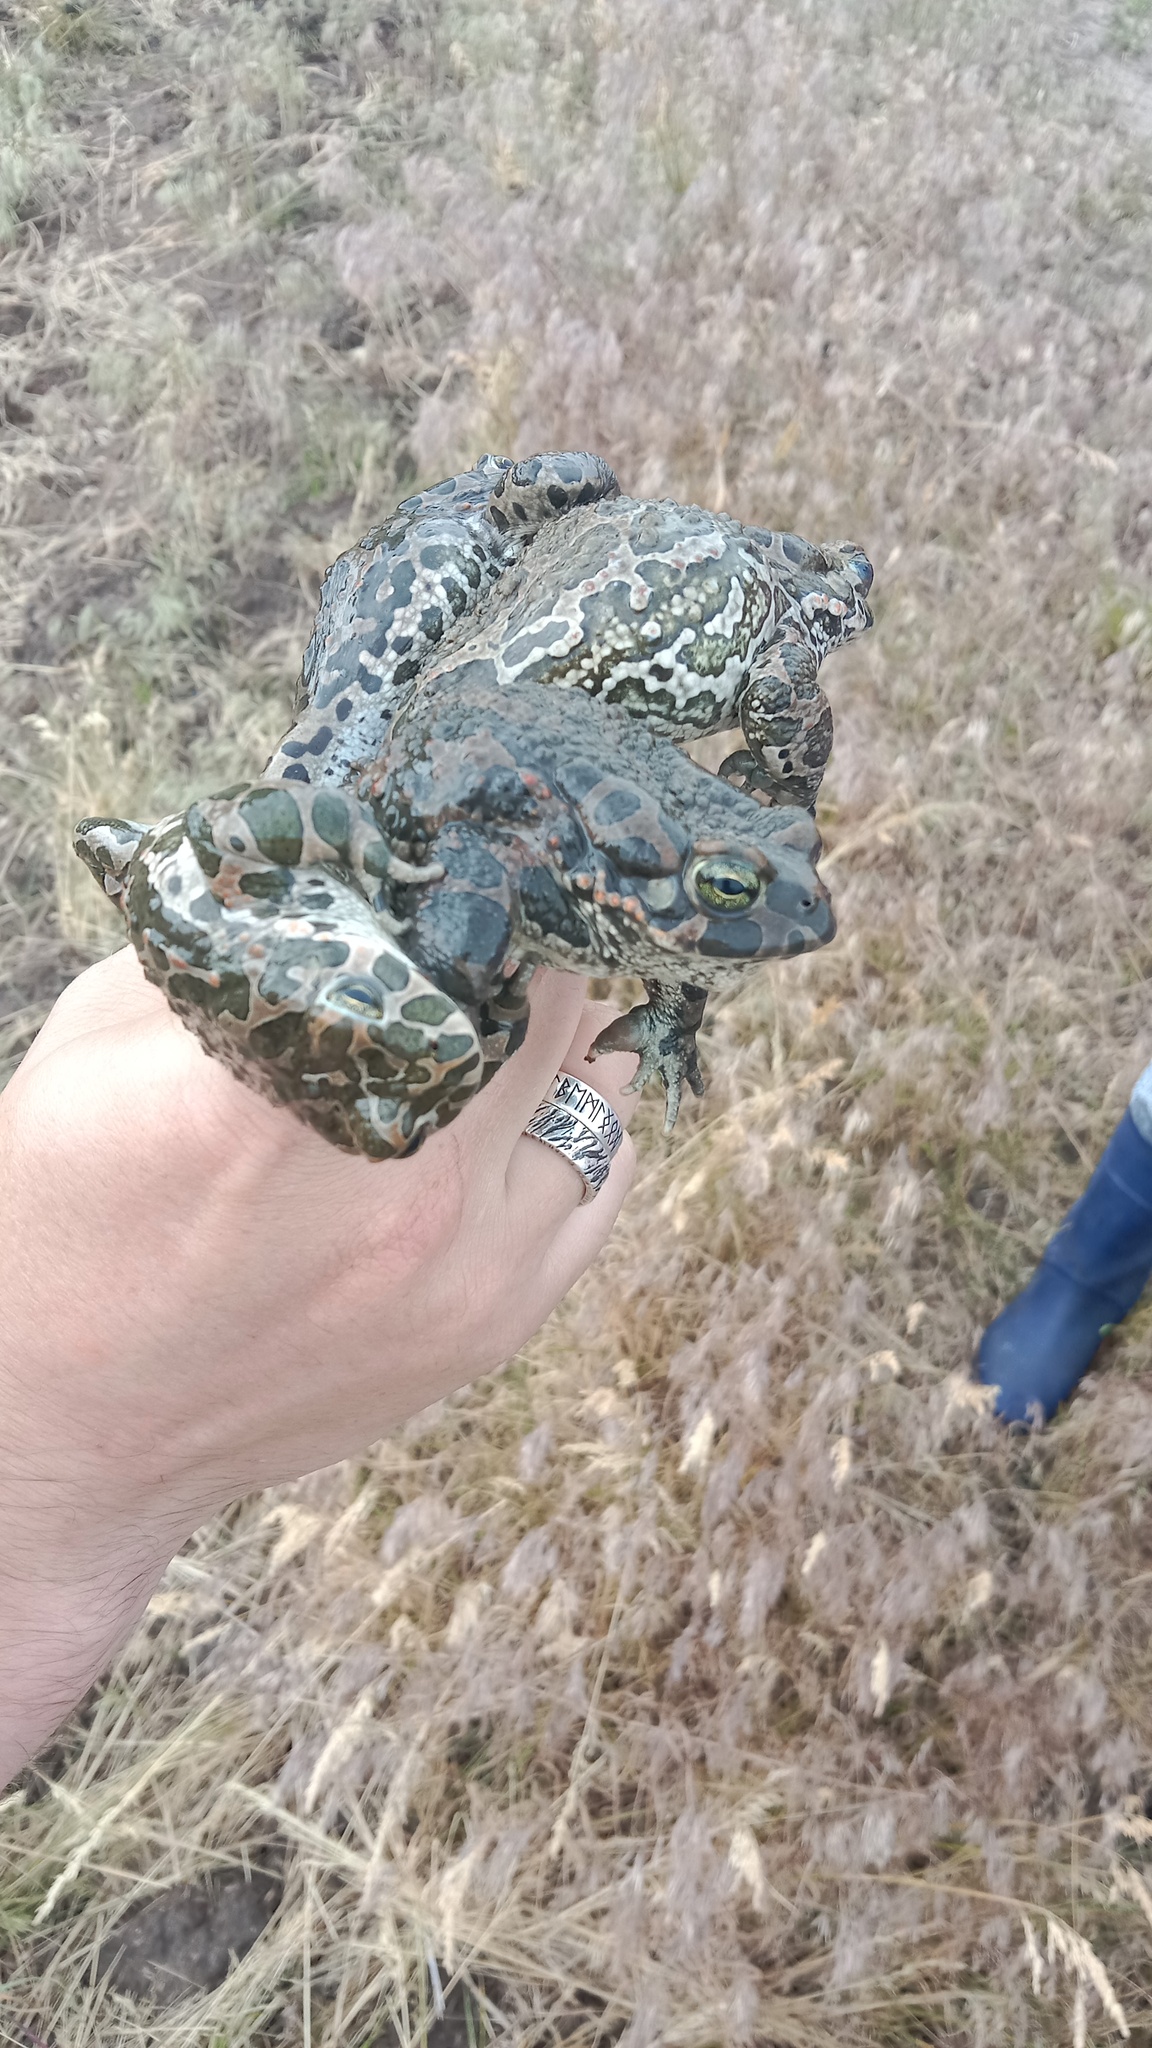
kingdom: Animalia
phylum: Chordata
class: Amphibia
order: Anura
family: Bufonidae
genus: Bufotes
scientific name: Bufotes viridis
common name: European green toad
